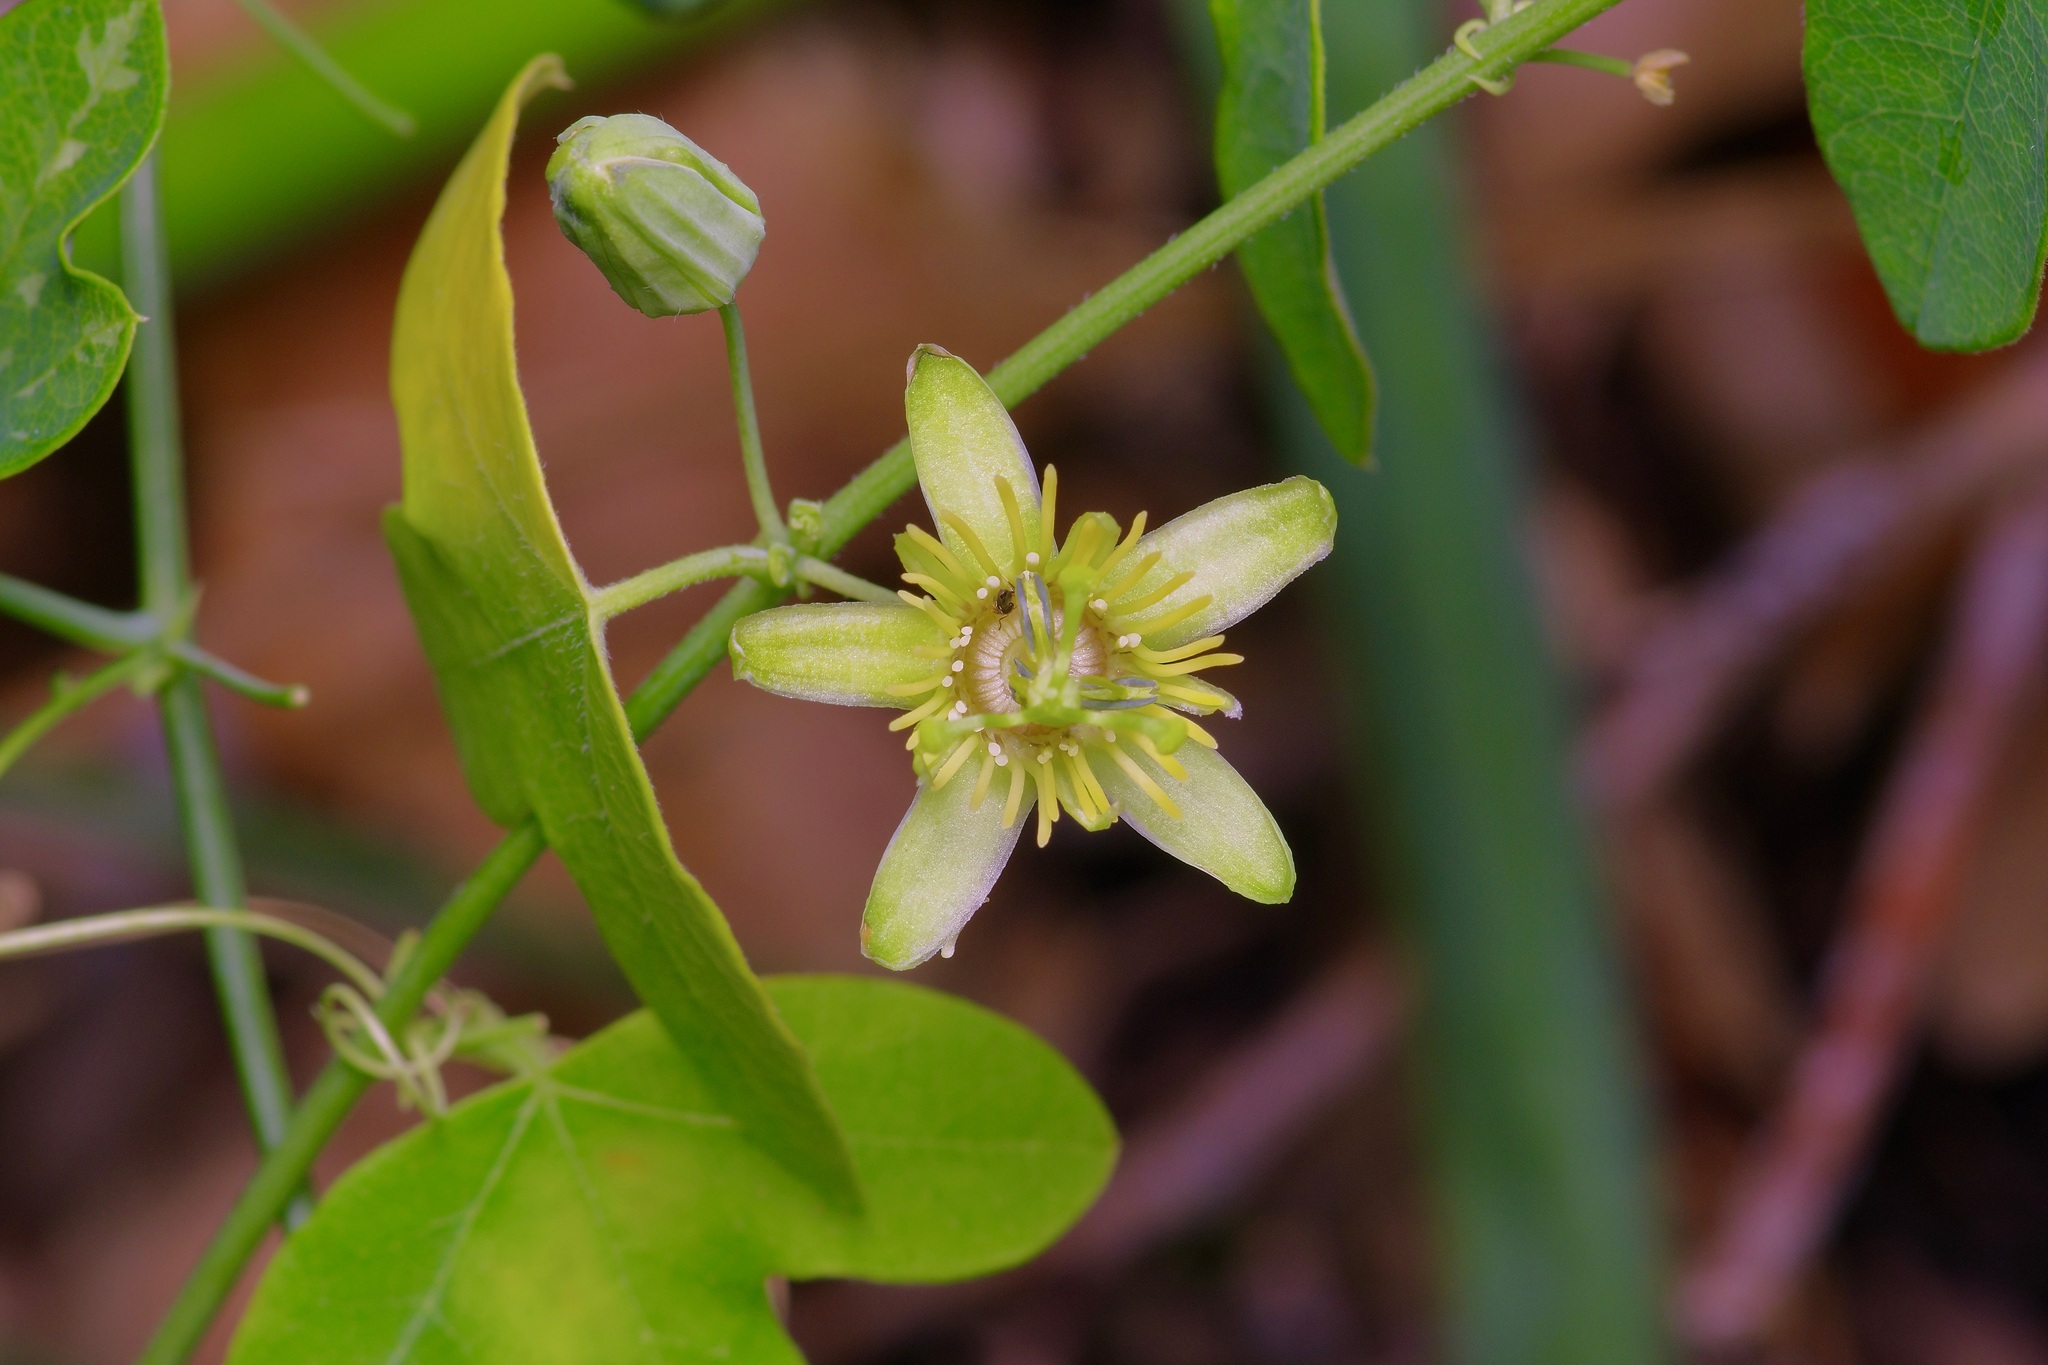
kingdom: Plantae
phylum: Tracheophyta
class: Magnoliopsida
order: Malpighiales
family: Passifloraceae
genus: Passiflora
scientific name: Passiflora lutea
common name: Yellow passionflower
